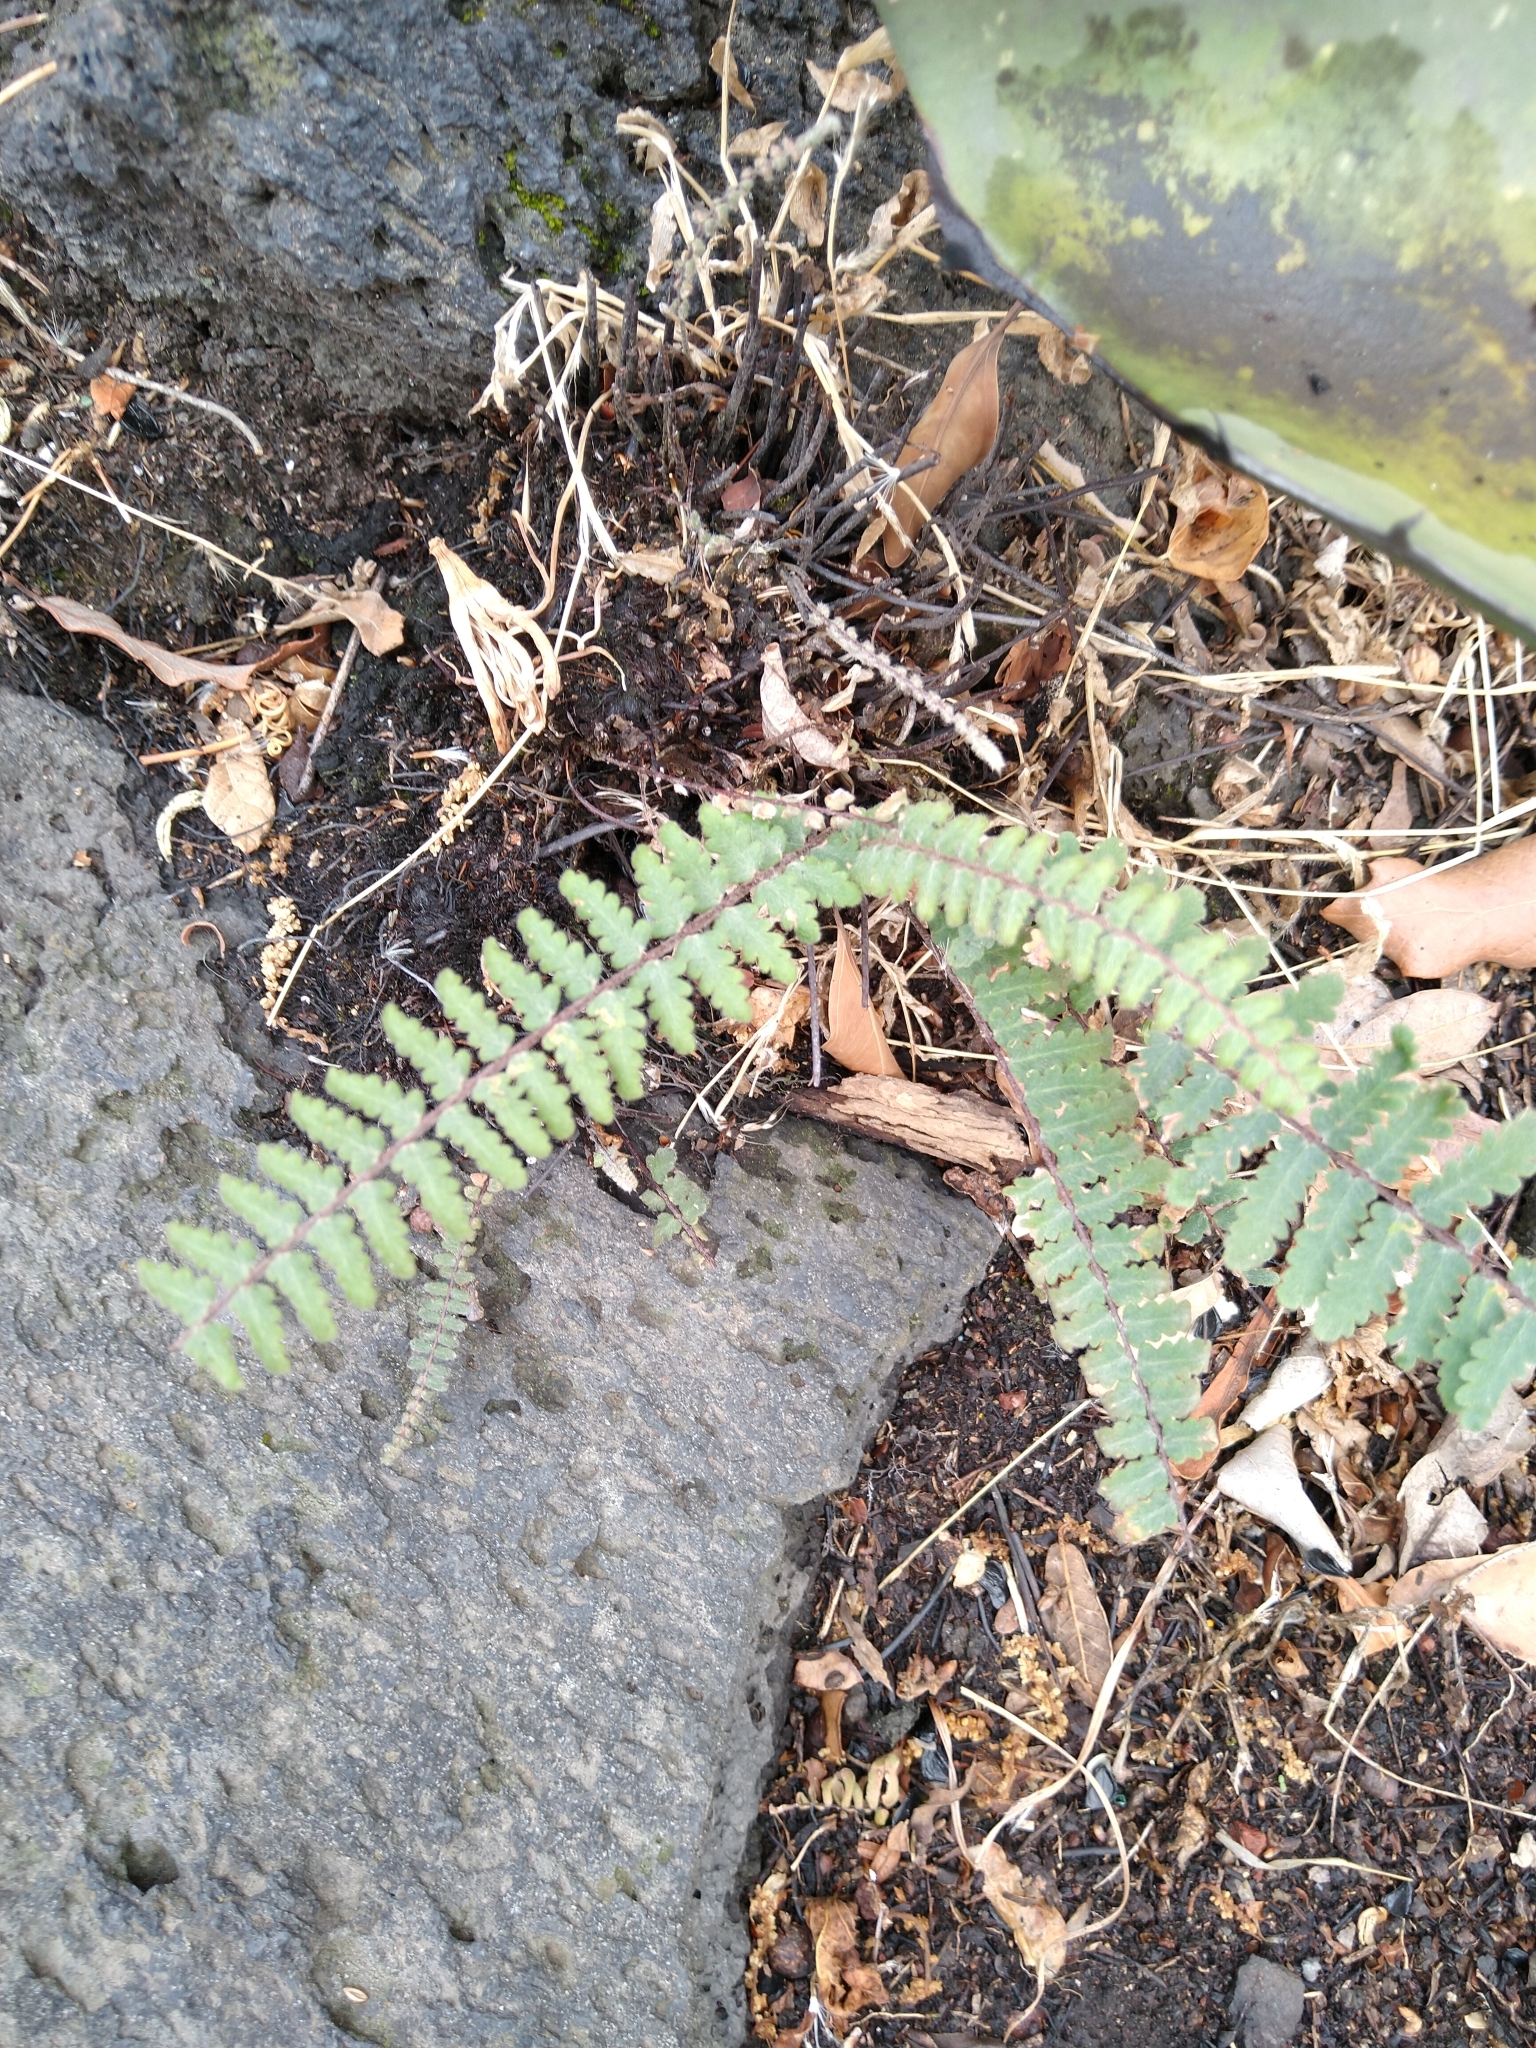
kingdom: Plantae
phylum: Tracheophyta
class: Polypodiopsida
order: Polypodiales
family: Pteridaceae
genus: Myriopteris
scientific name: Myriopteris aurea
